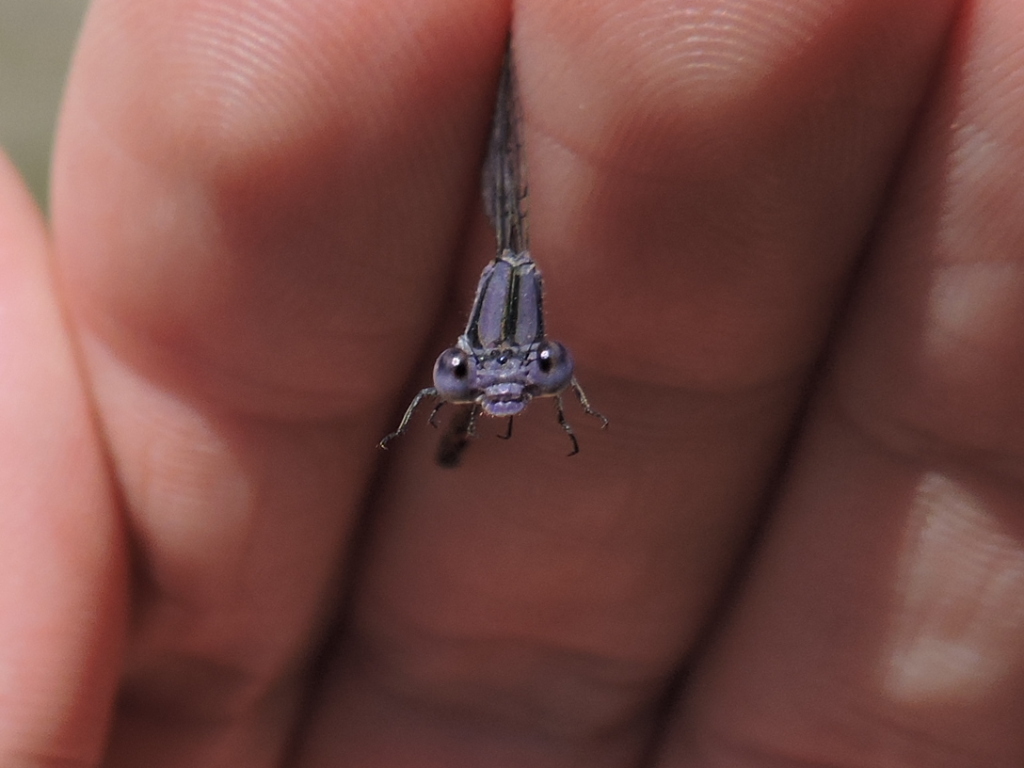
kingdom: Animalia
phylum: Arthropoda
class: Insecta
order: Odonata
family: Coenagrionidae
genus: Argia
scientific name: Argia fumipennis
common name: Variable dancer
